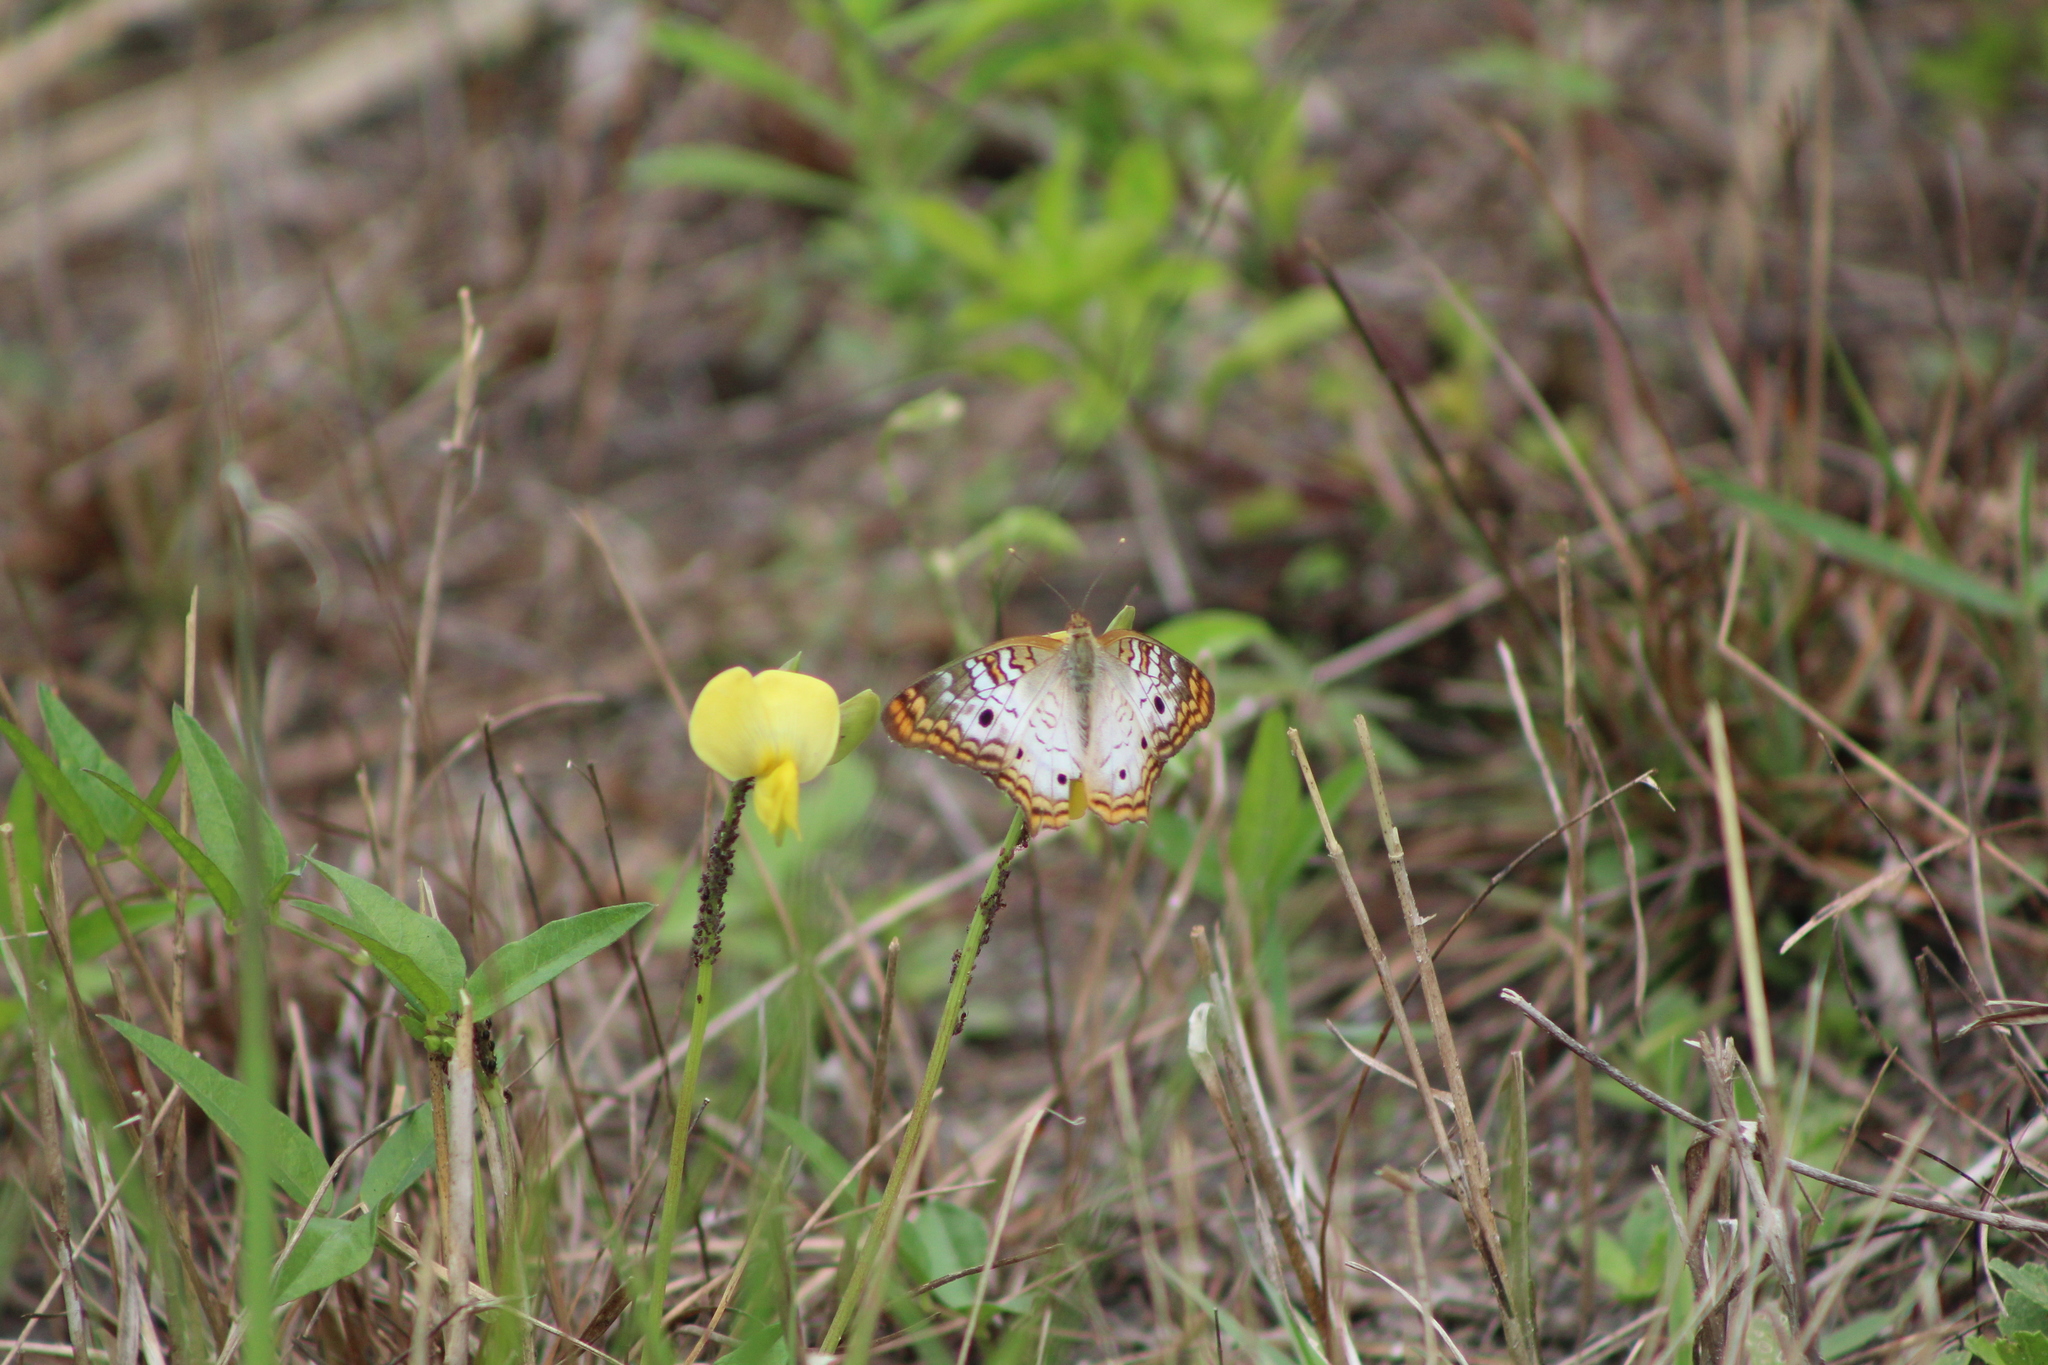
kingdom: Animalia
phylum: Arthropoda
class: Insecta
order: Lepidoptera
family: Nymphalidae
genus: Anartia
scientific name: Anartia jatrophae
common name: White peacock
